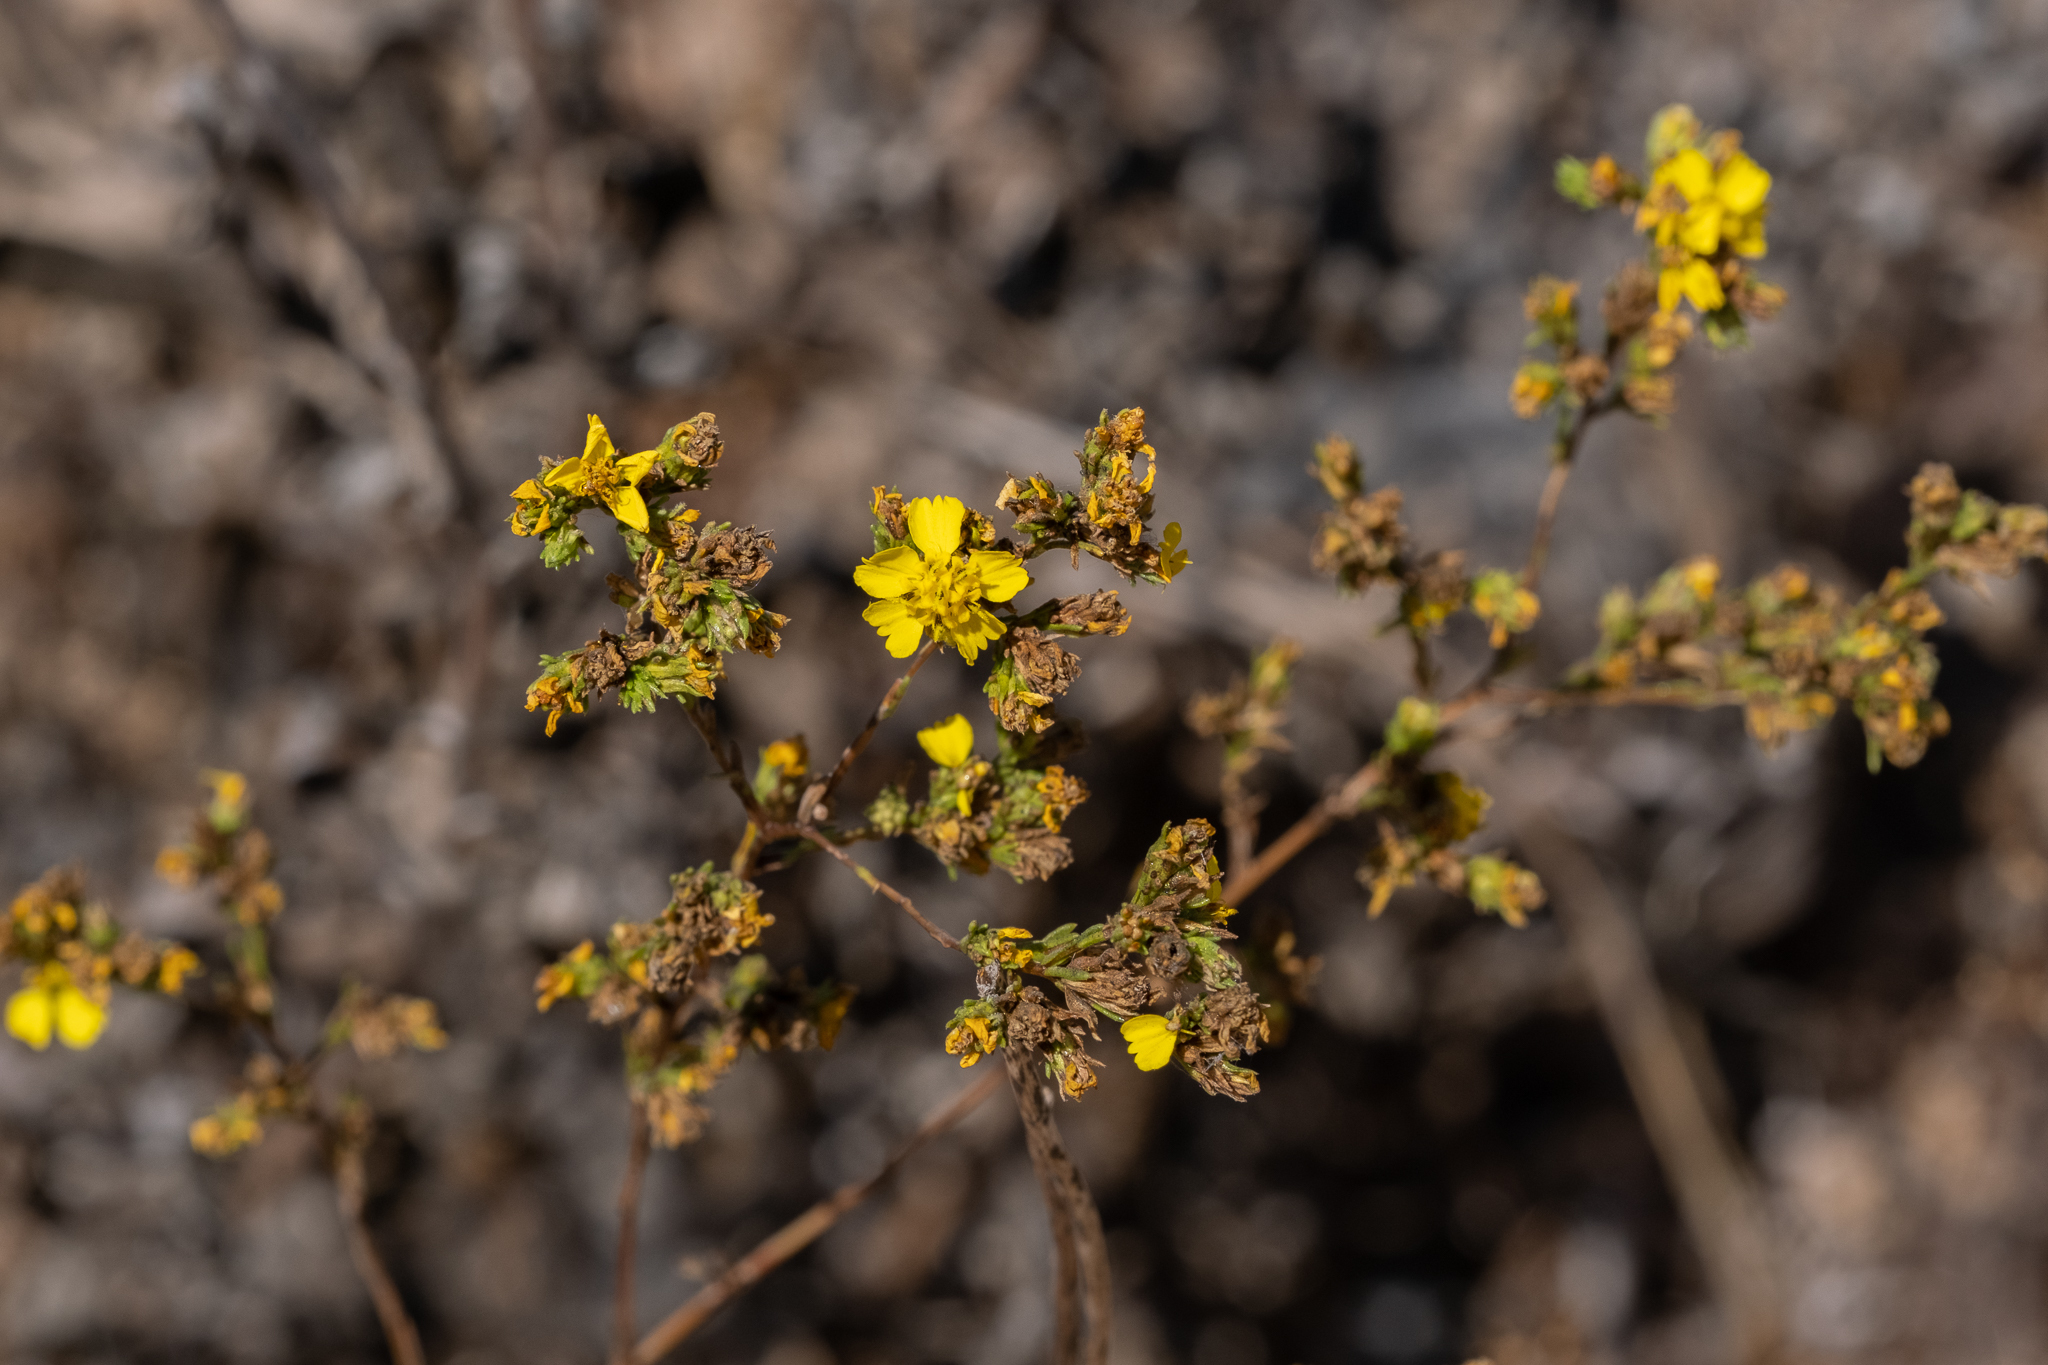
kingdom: Plantae
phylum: Tracheophyta
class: Magnoliopsida
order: Asterales
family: Asteraceae
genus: Deinandra
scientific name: Deinandra fasciculata
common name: Clustered tarweed
